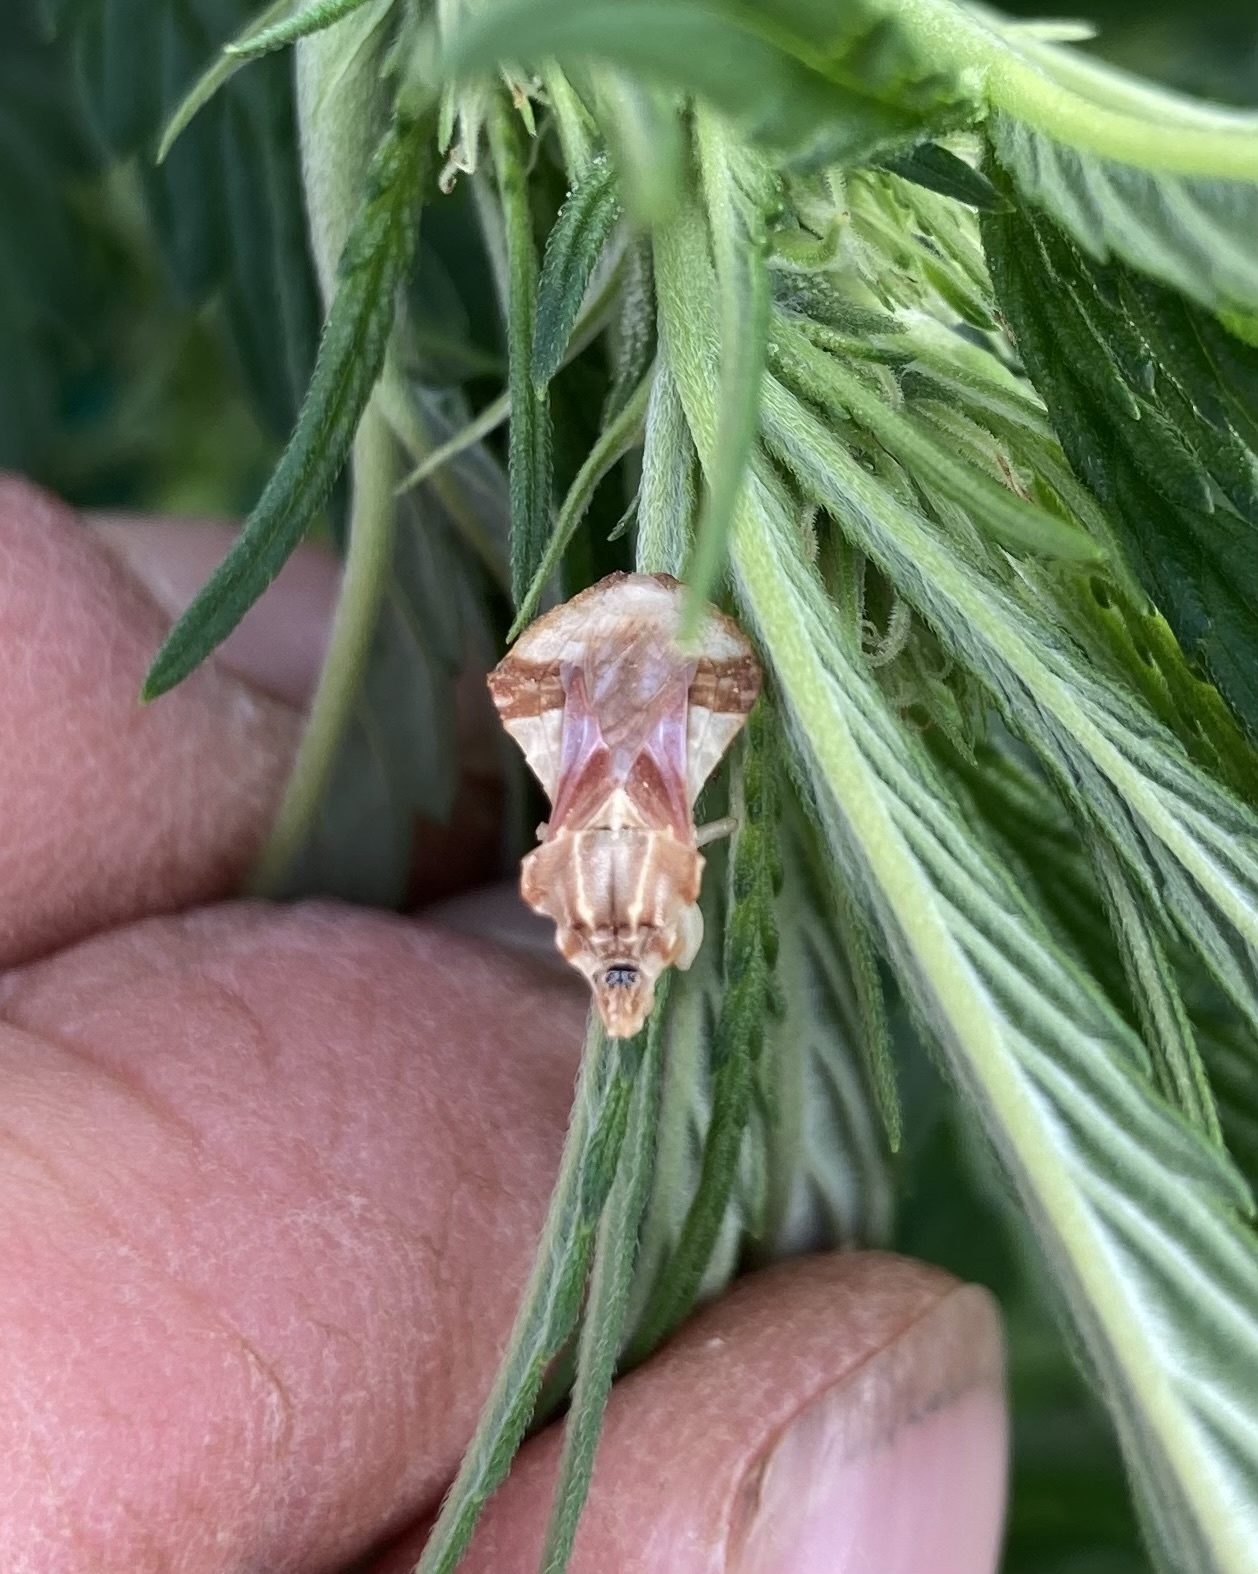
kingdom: Animalia
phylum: Arthropoda
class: Insecta
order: Hemiptera
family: Reduviidae
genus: Phymata
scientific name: Phymata fasciata
